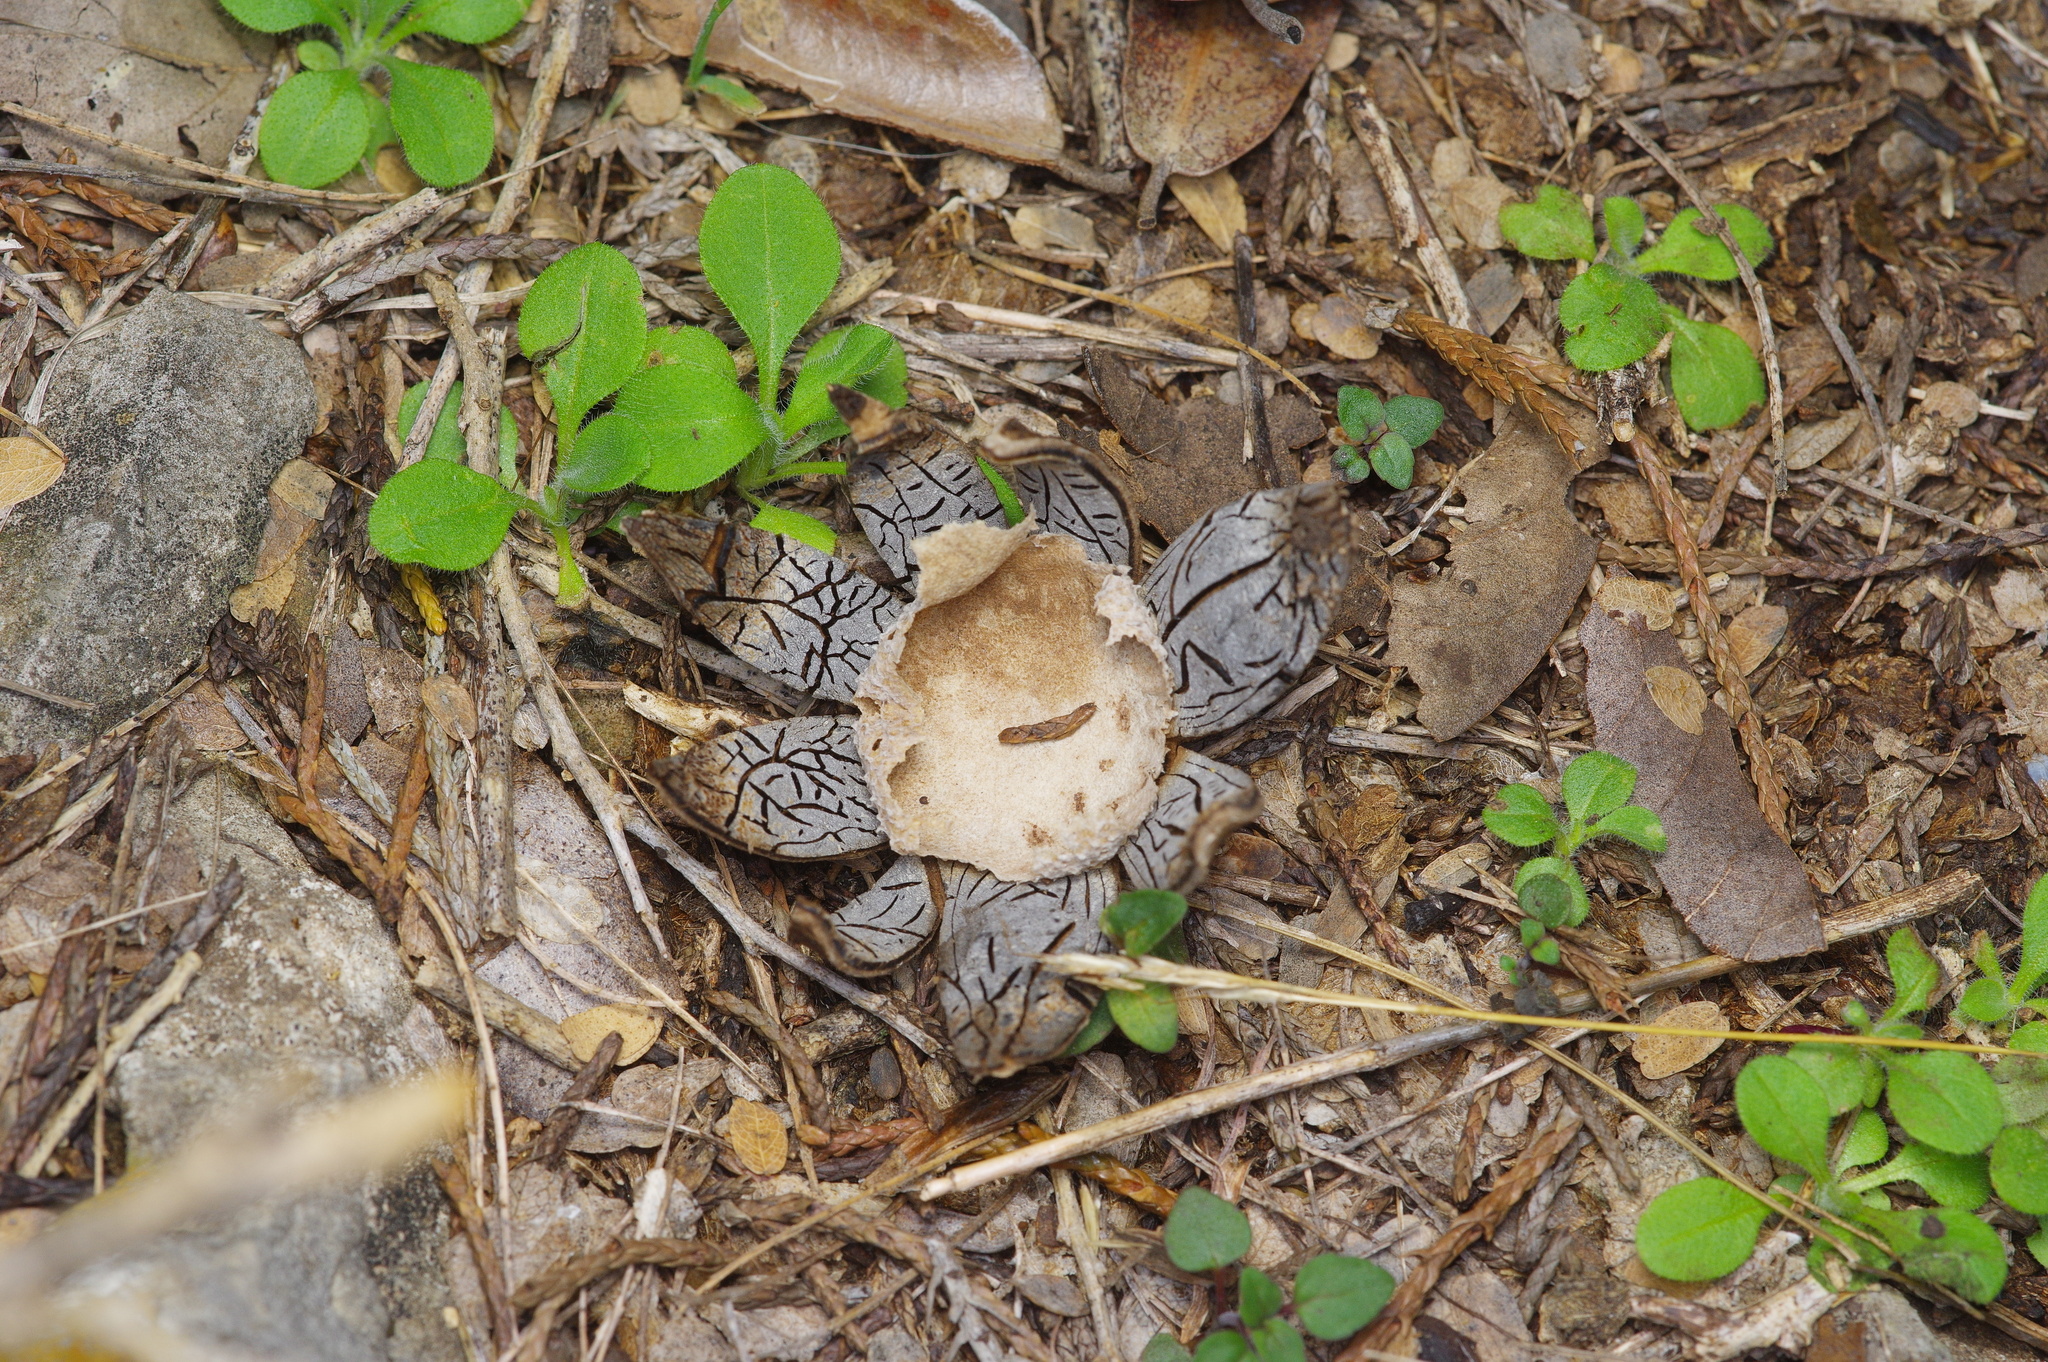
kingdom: Fungi
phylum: Basidiomycota
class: Agaricomycetes
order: Boletales
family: Diplocystidiaceae
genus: Astraeus
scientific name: Astraeus morganii
